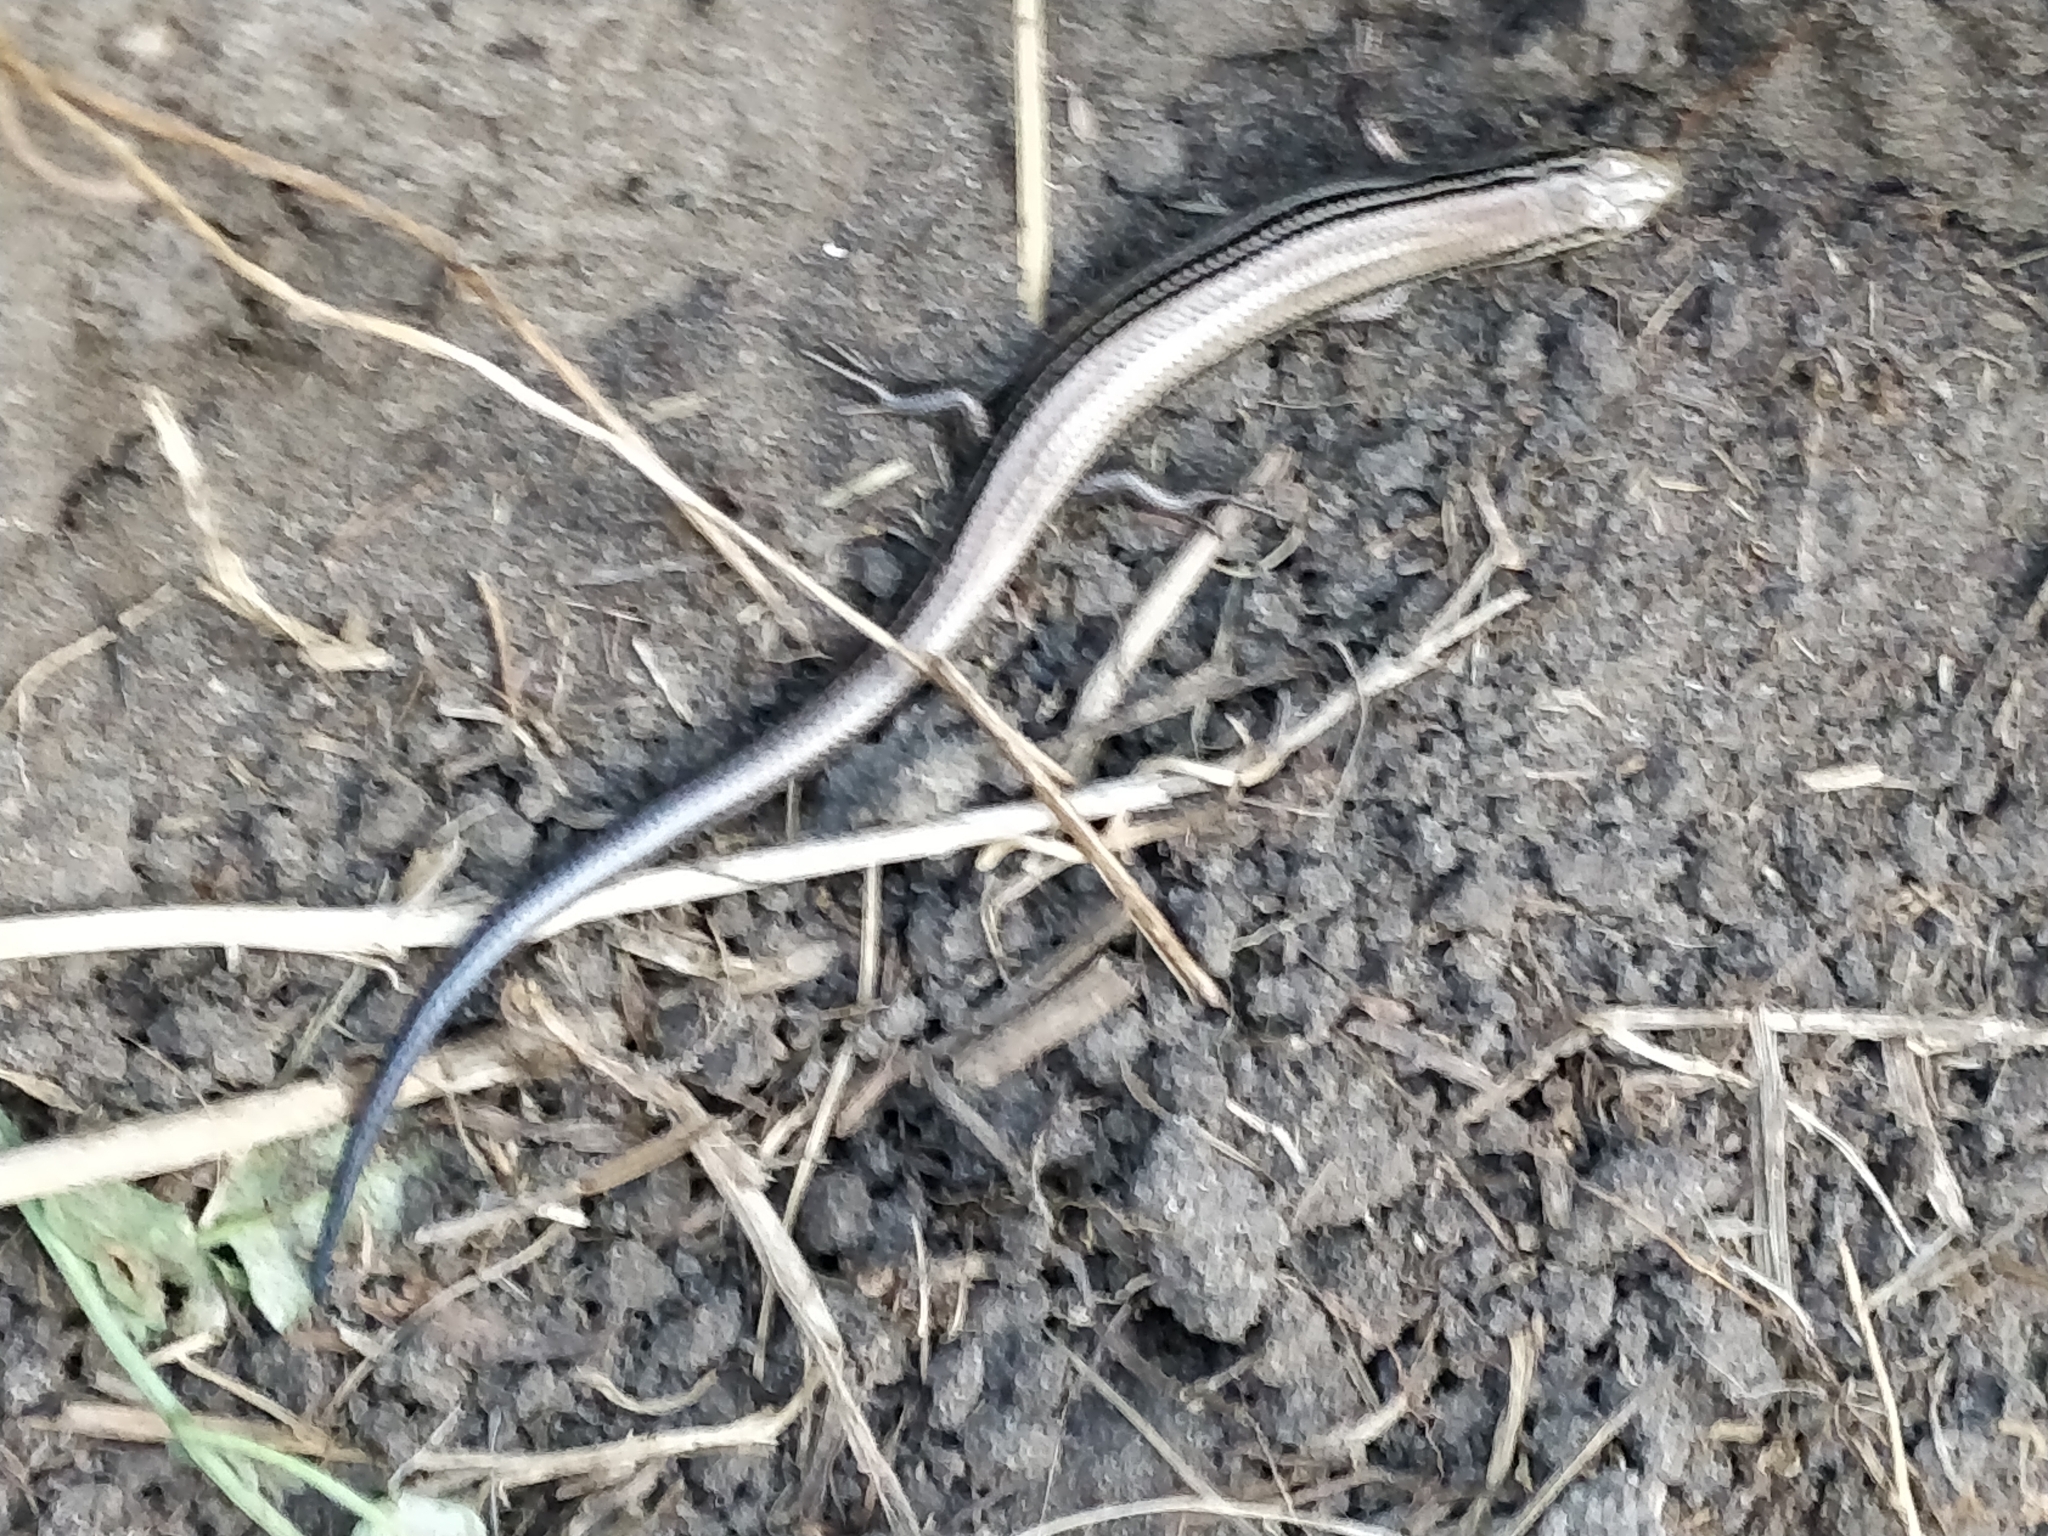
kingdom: Animalia
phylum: Chordata
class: Squamata
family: Scincidae
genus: Plestiodon
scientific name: Plestiodon septentrionalis
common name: Northern prairie skink
